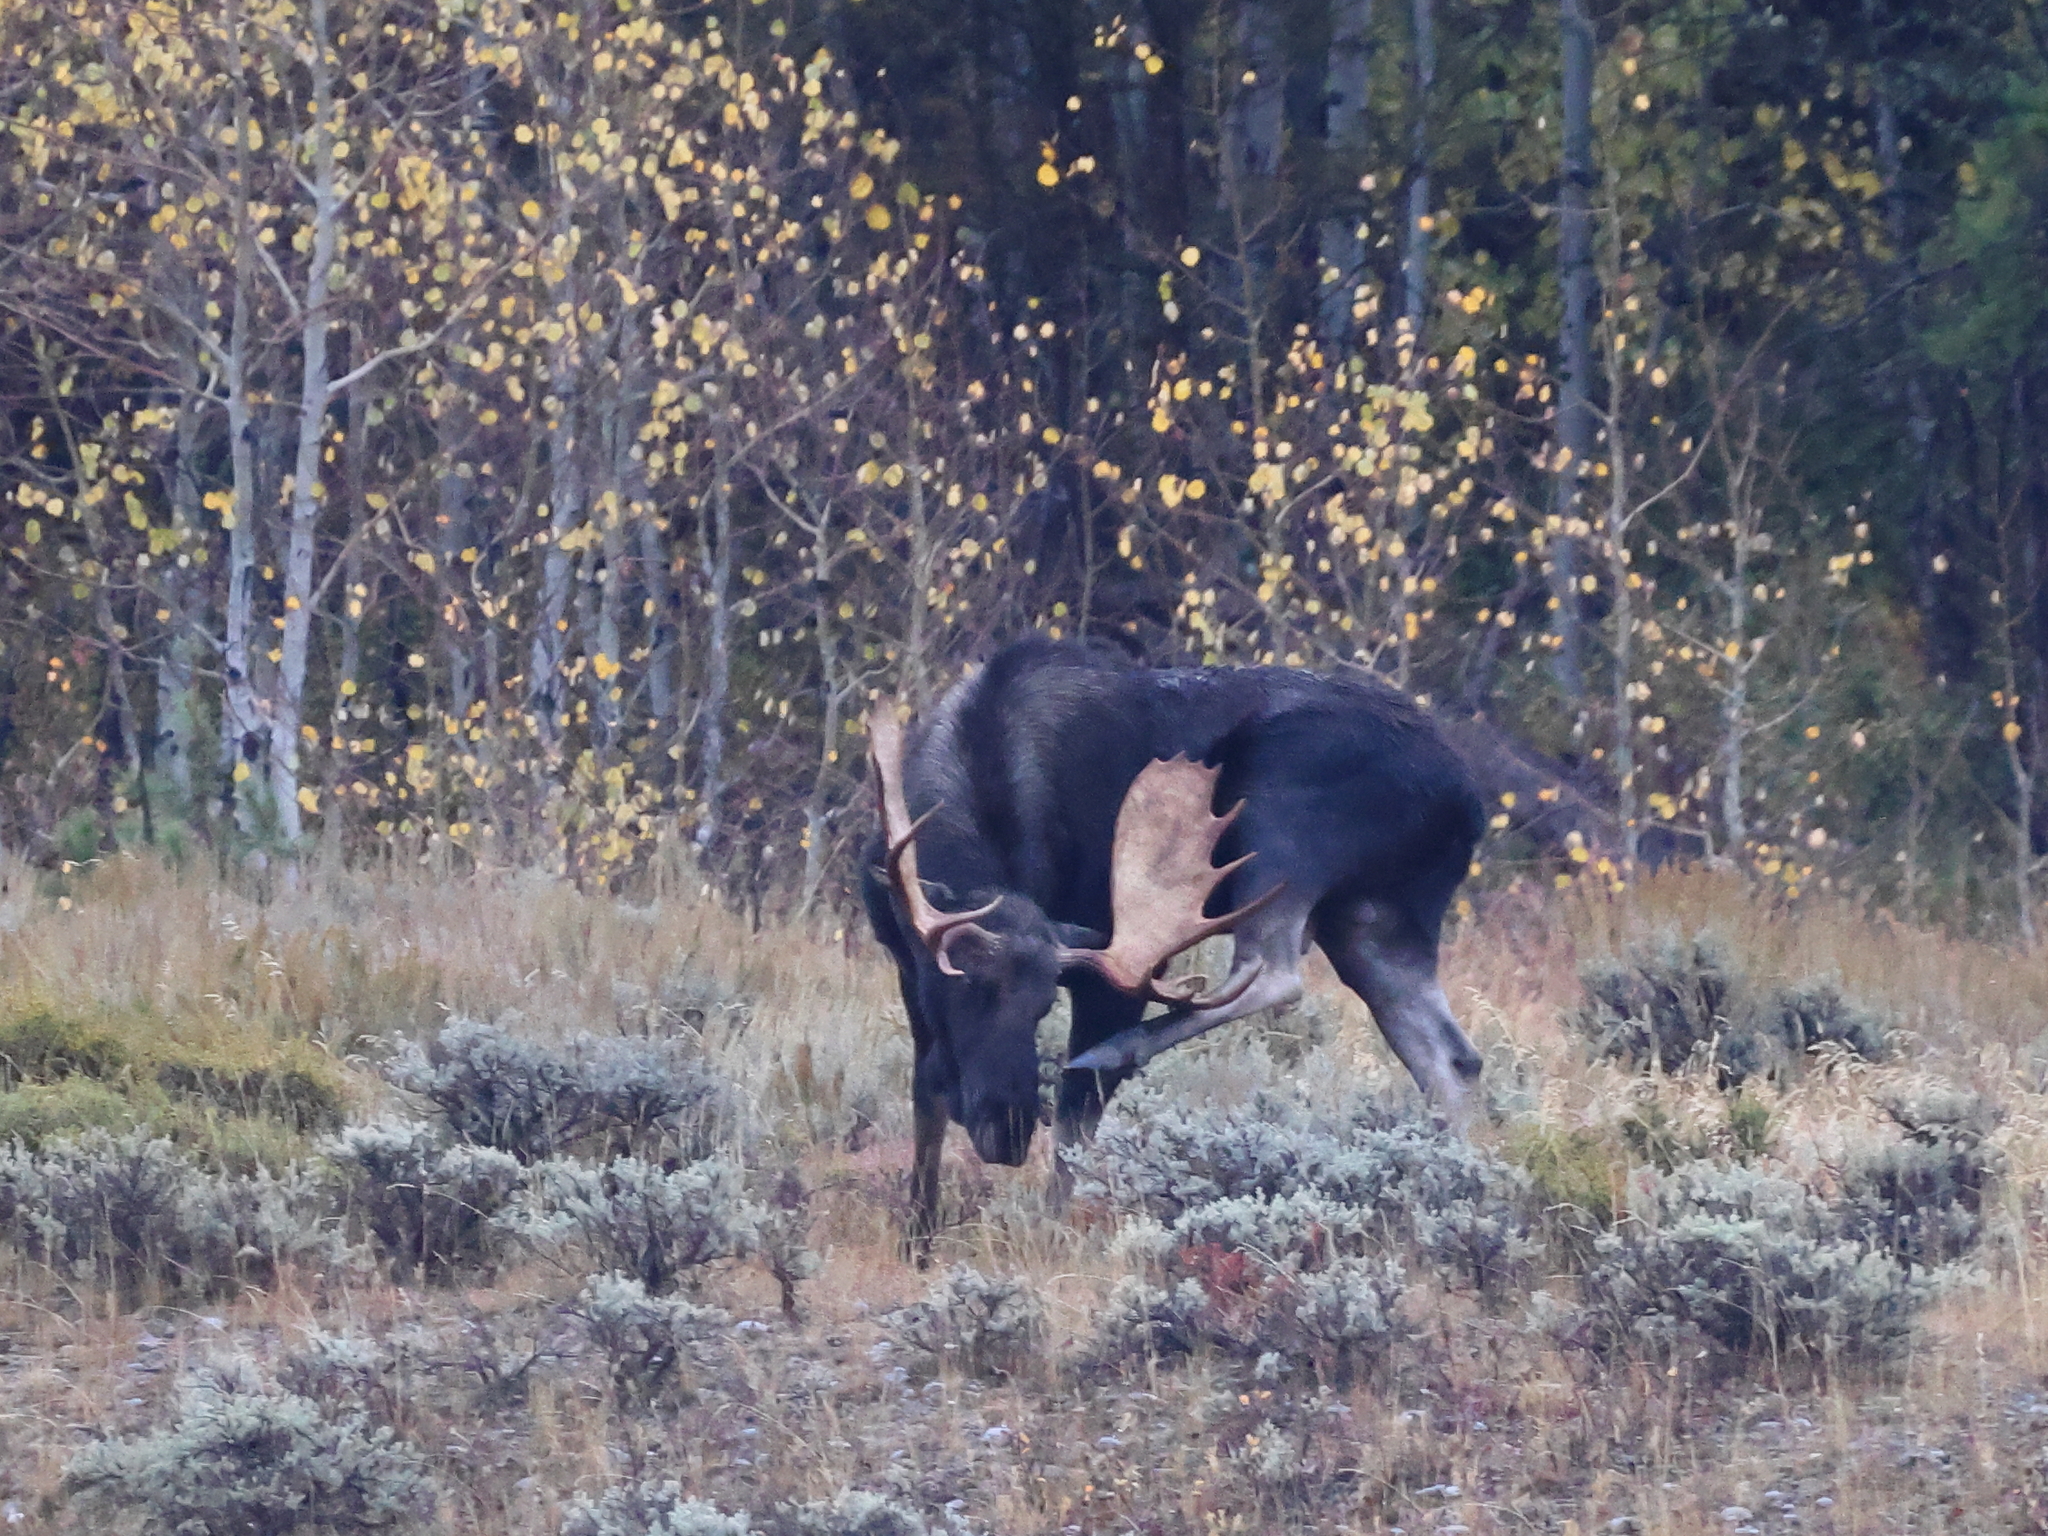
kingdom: Animalia
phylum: Chordata
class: Mammalia
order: Artiodactyla
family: Cervidae
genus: Alces
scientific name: Alces americanus
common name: Moose
